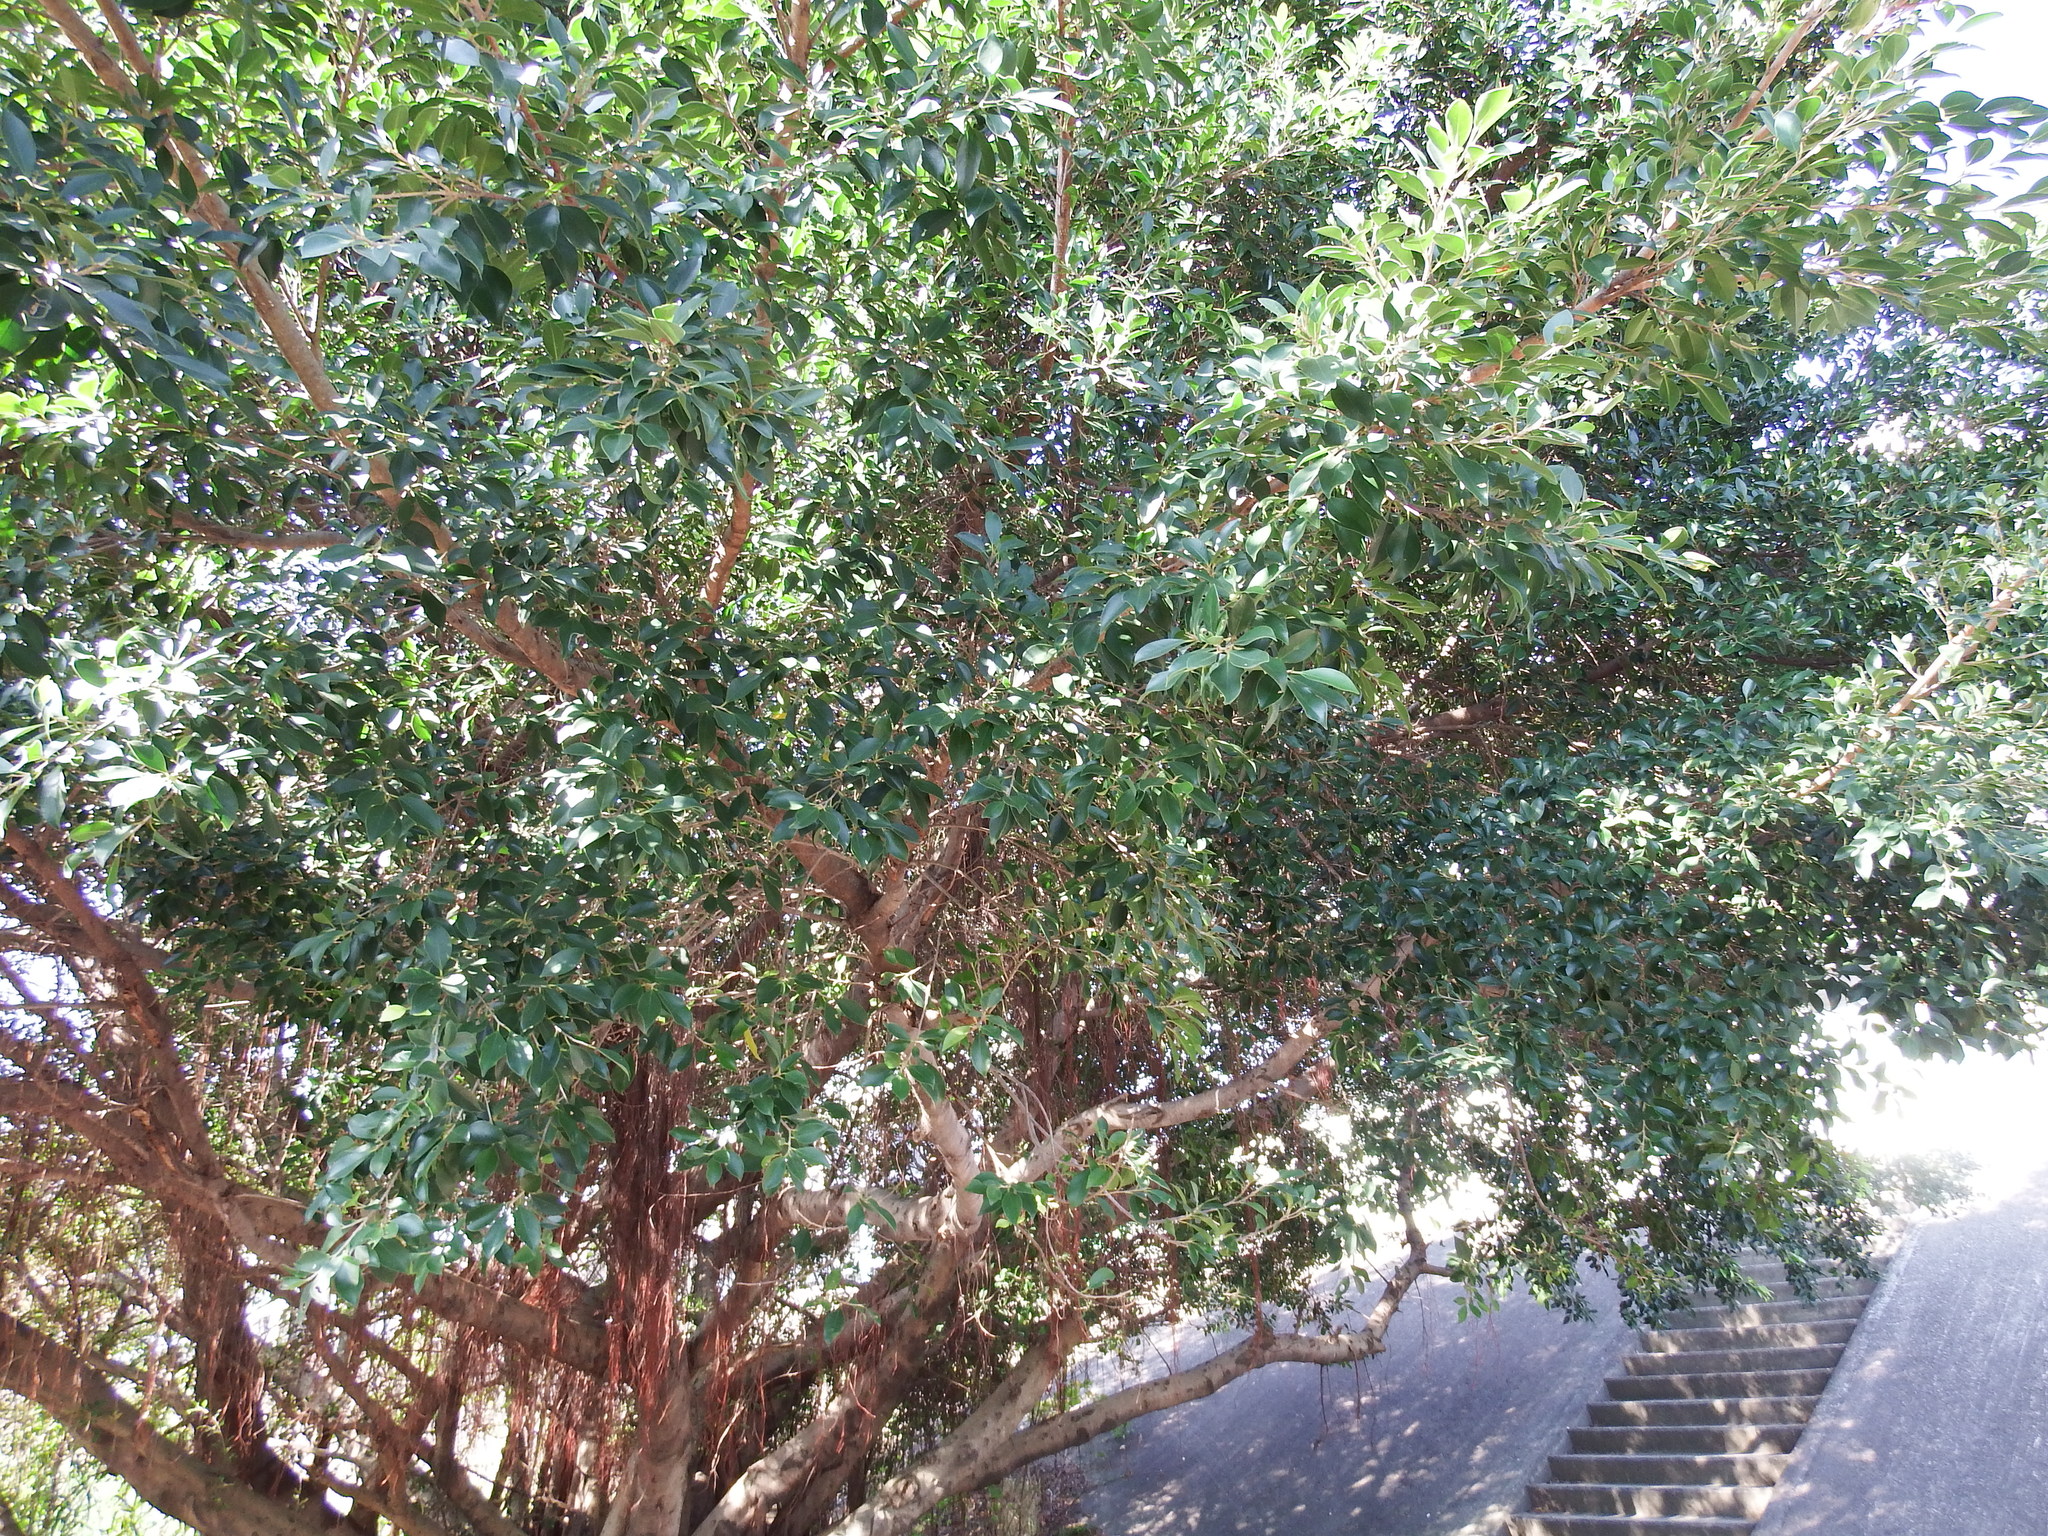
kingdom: Plantae
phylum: Tracheophyta
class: Magnoliopsida
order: Rosales
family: Moraceae
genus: Ficus
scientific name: Ficus microcarpa
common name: Chinese banyan
